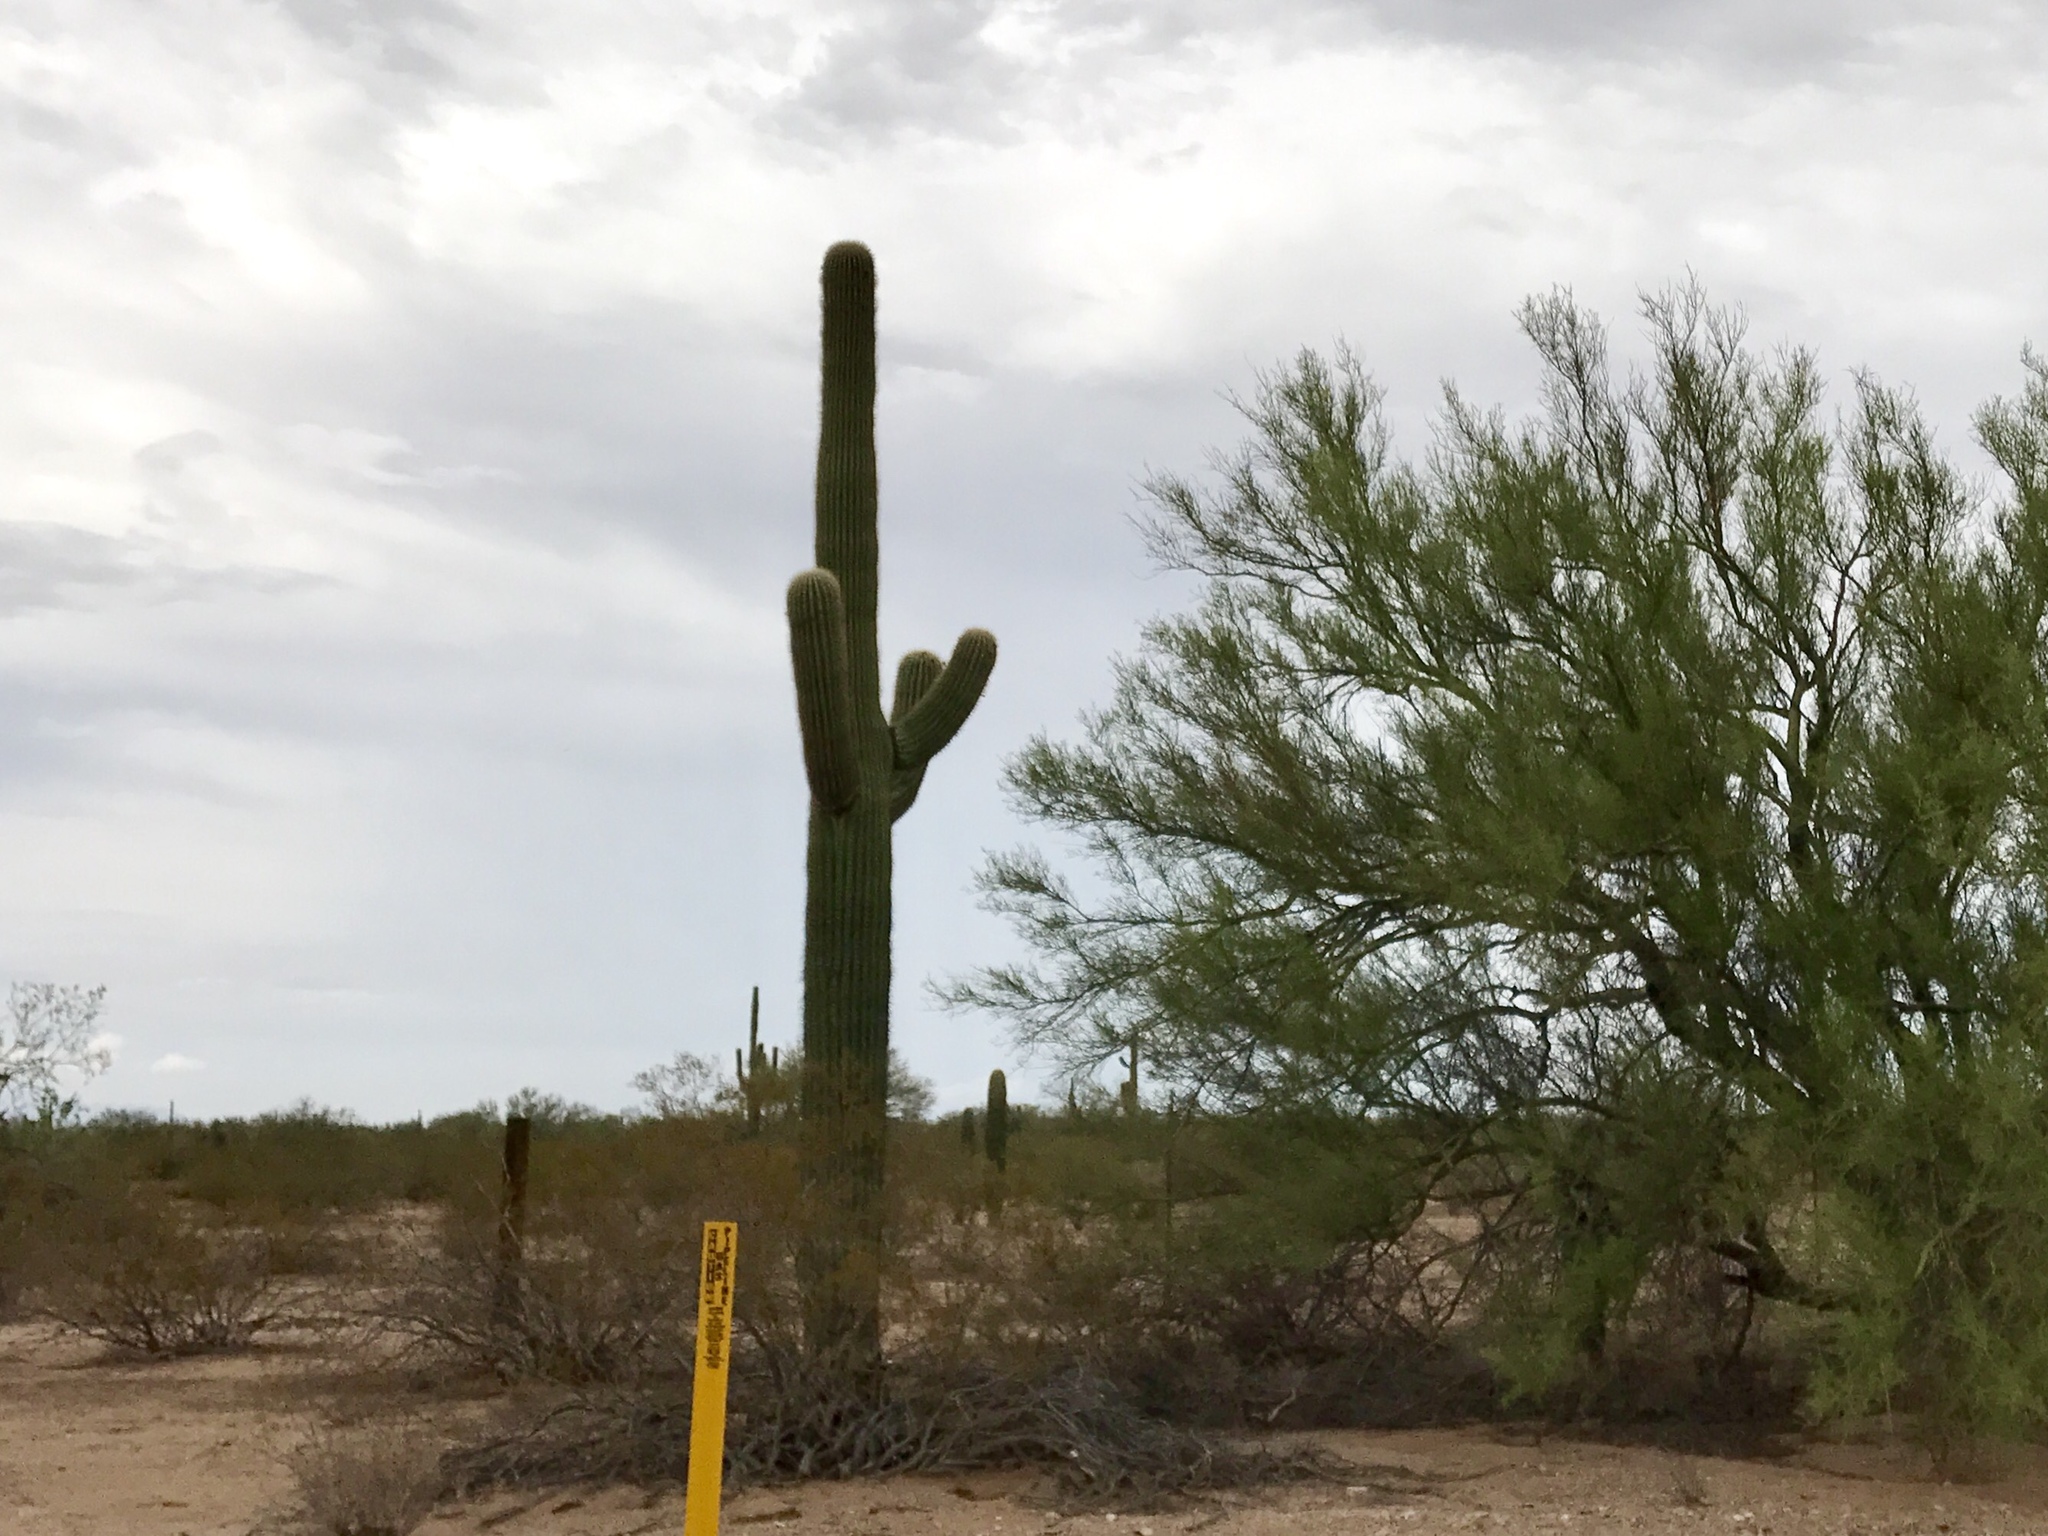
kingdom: Plantae
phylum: Tracheophyta
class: Magnoliopsida
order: Caryophyllales
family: Cactaceae
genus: Carnegiea
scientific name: Carnegiea gigantea
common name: Saguaro
